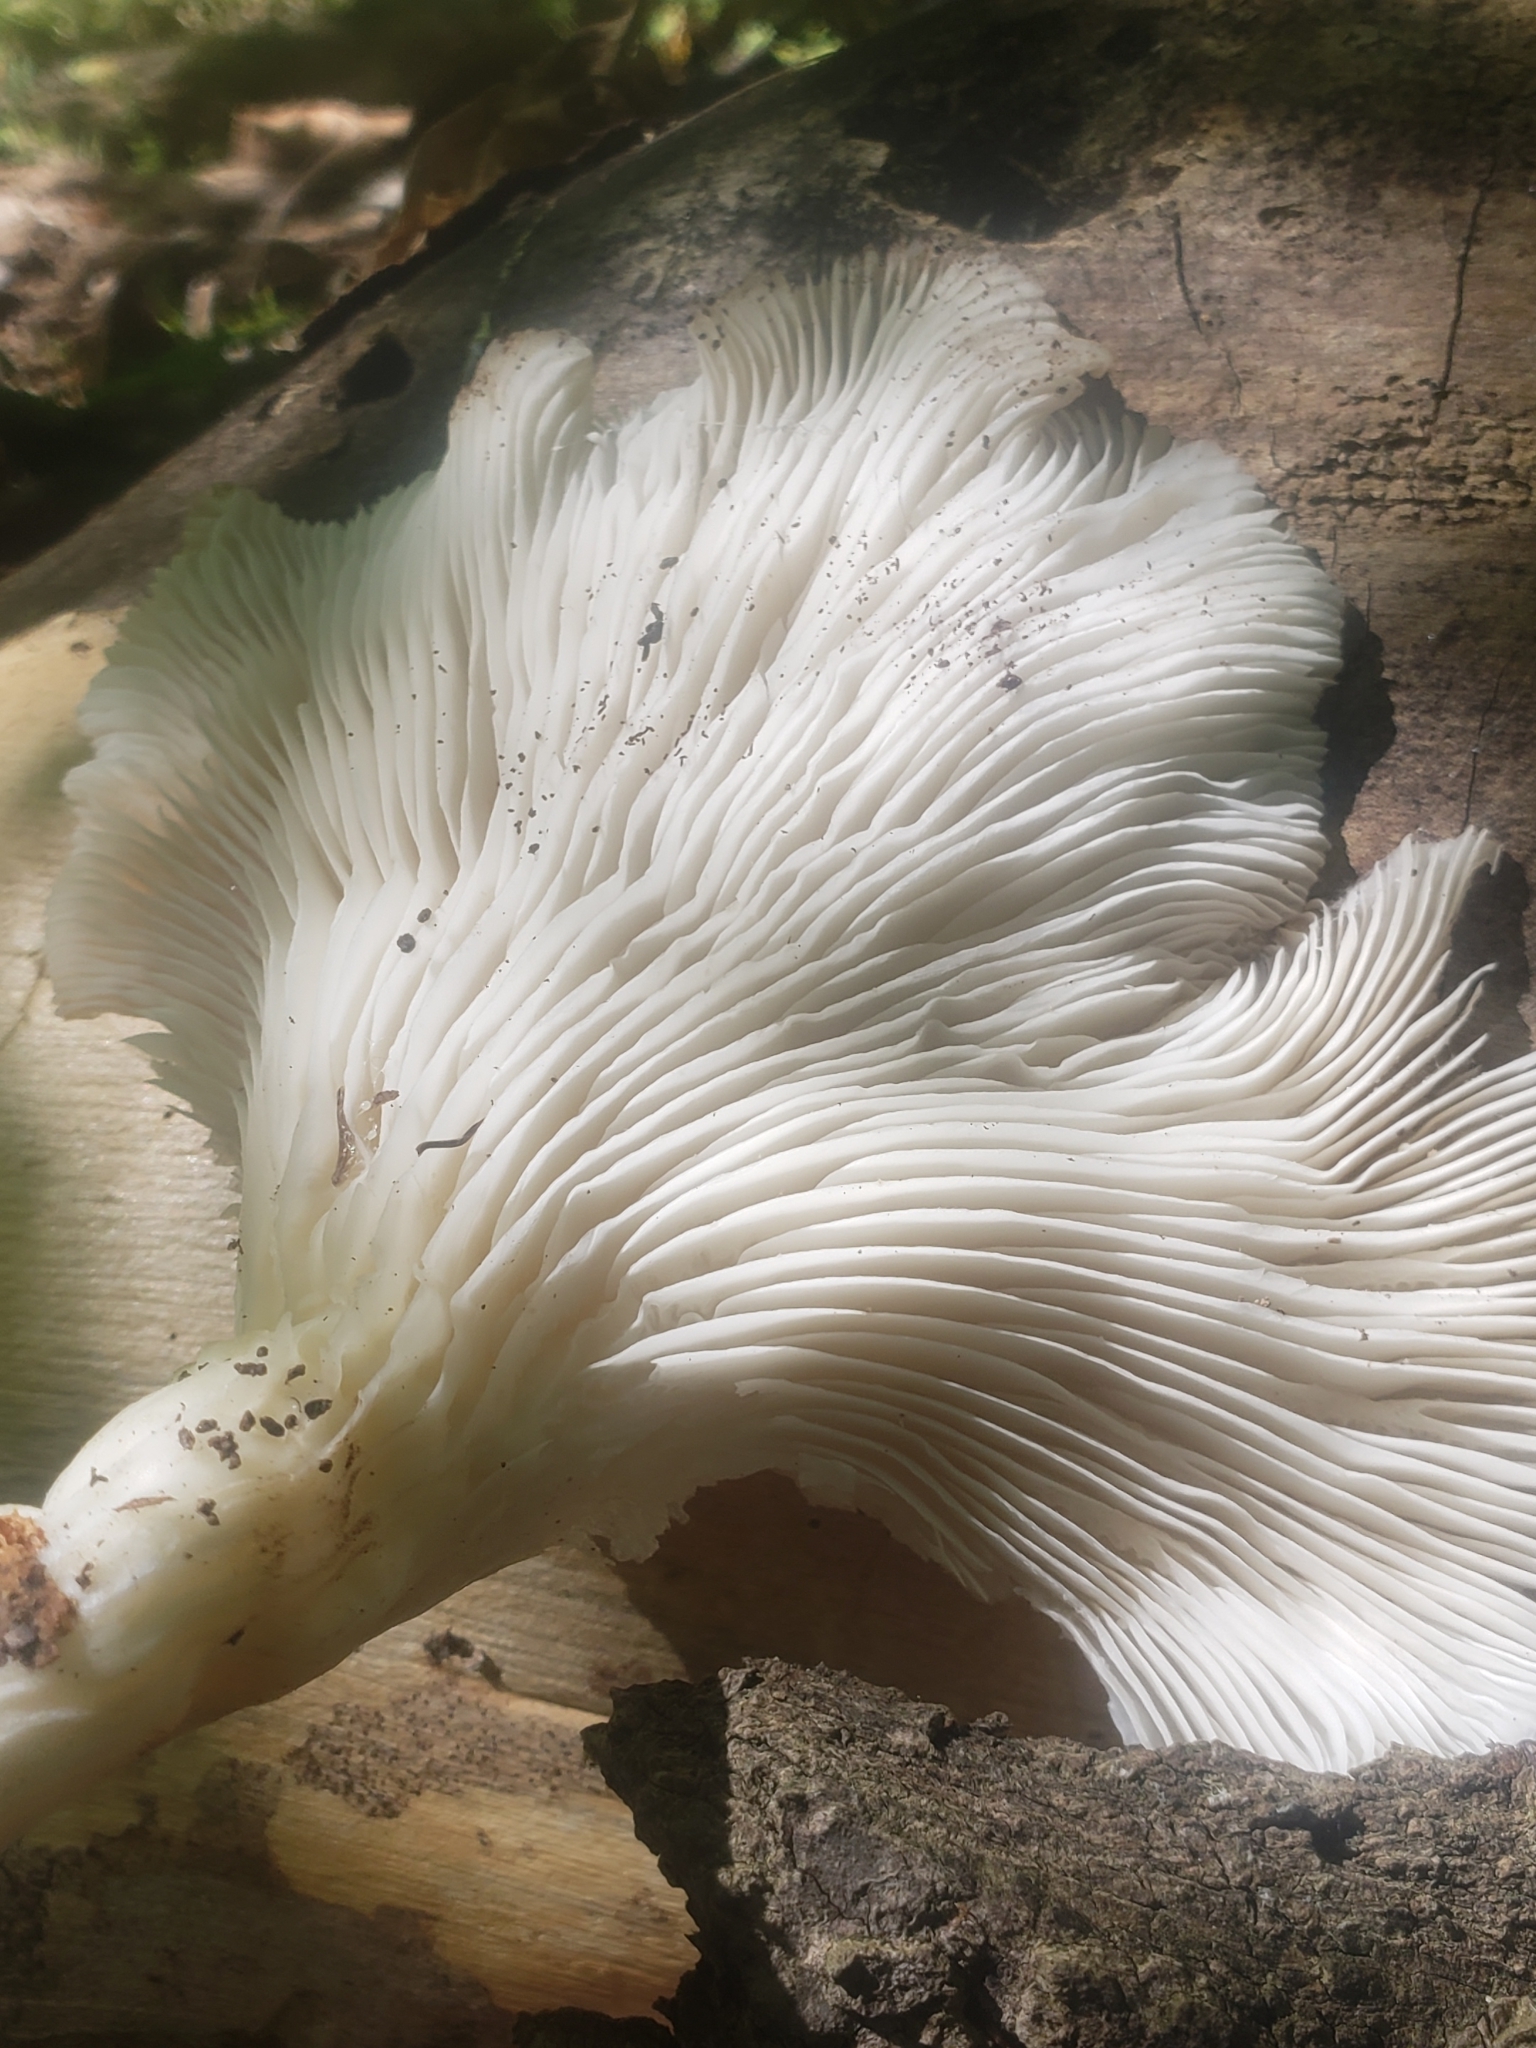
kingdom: Fungi
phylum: Basidiomycota
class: Agaricomycetes
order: Agaricales
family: Pleurotaceae
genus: Pleurotus
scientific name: Pleurotus pulmonarius
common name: Pale oyster
